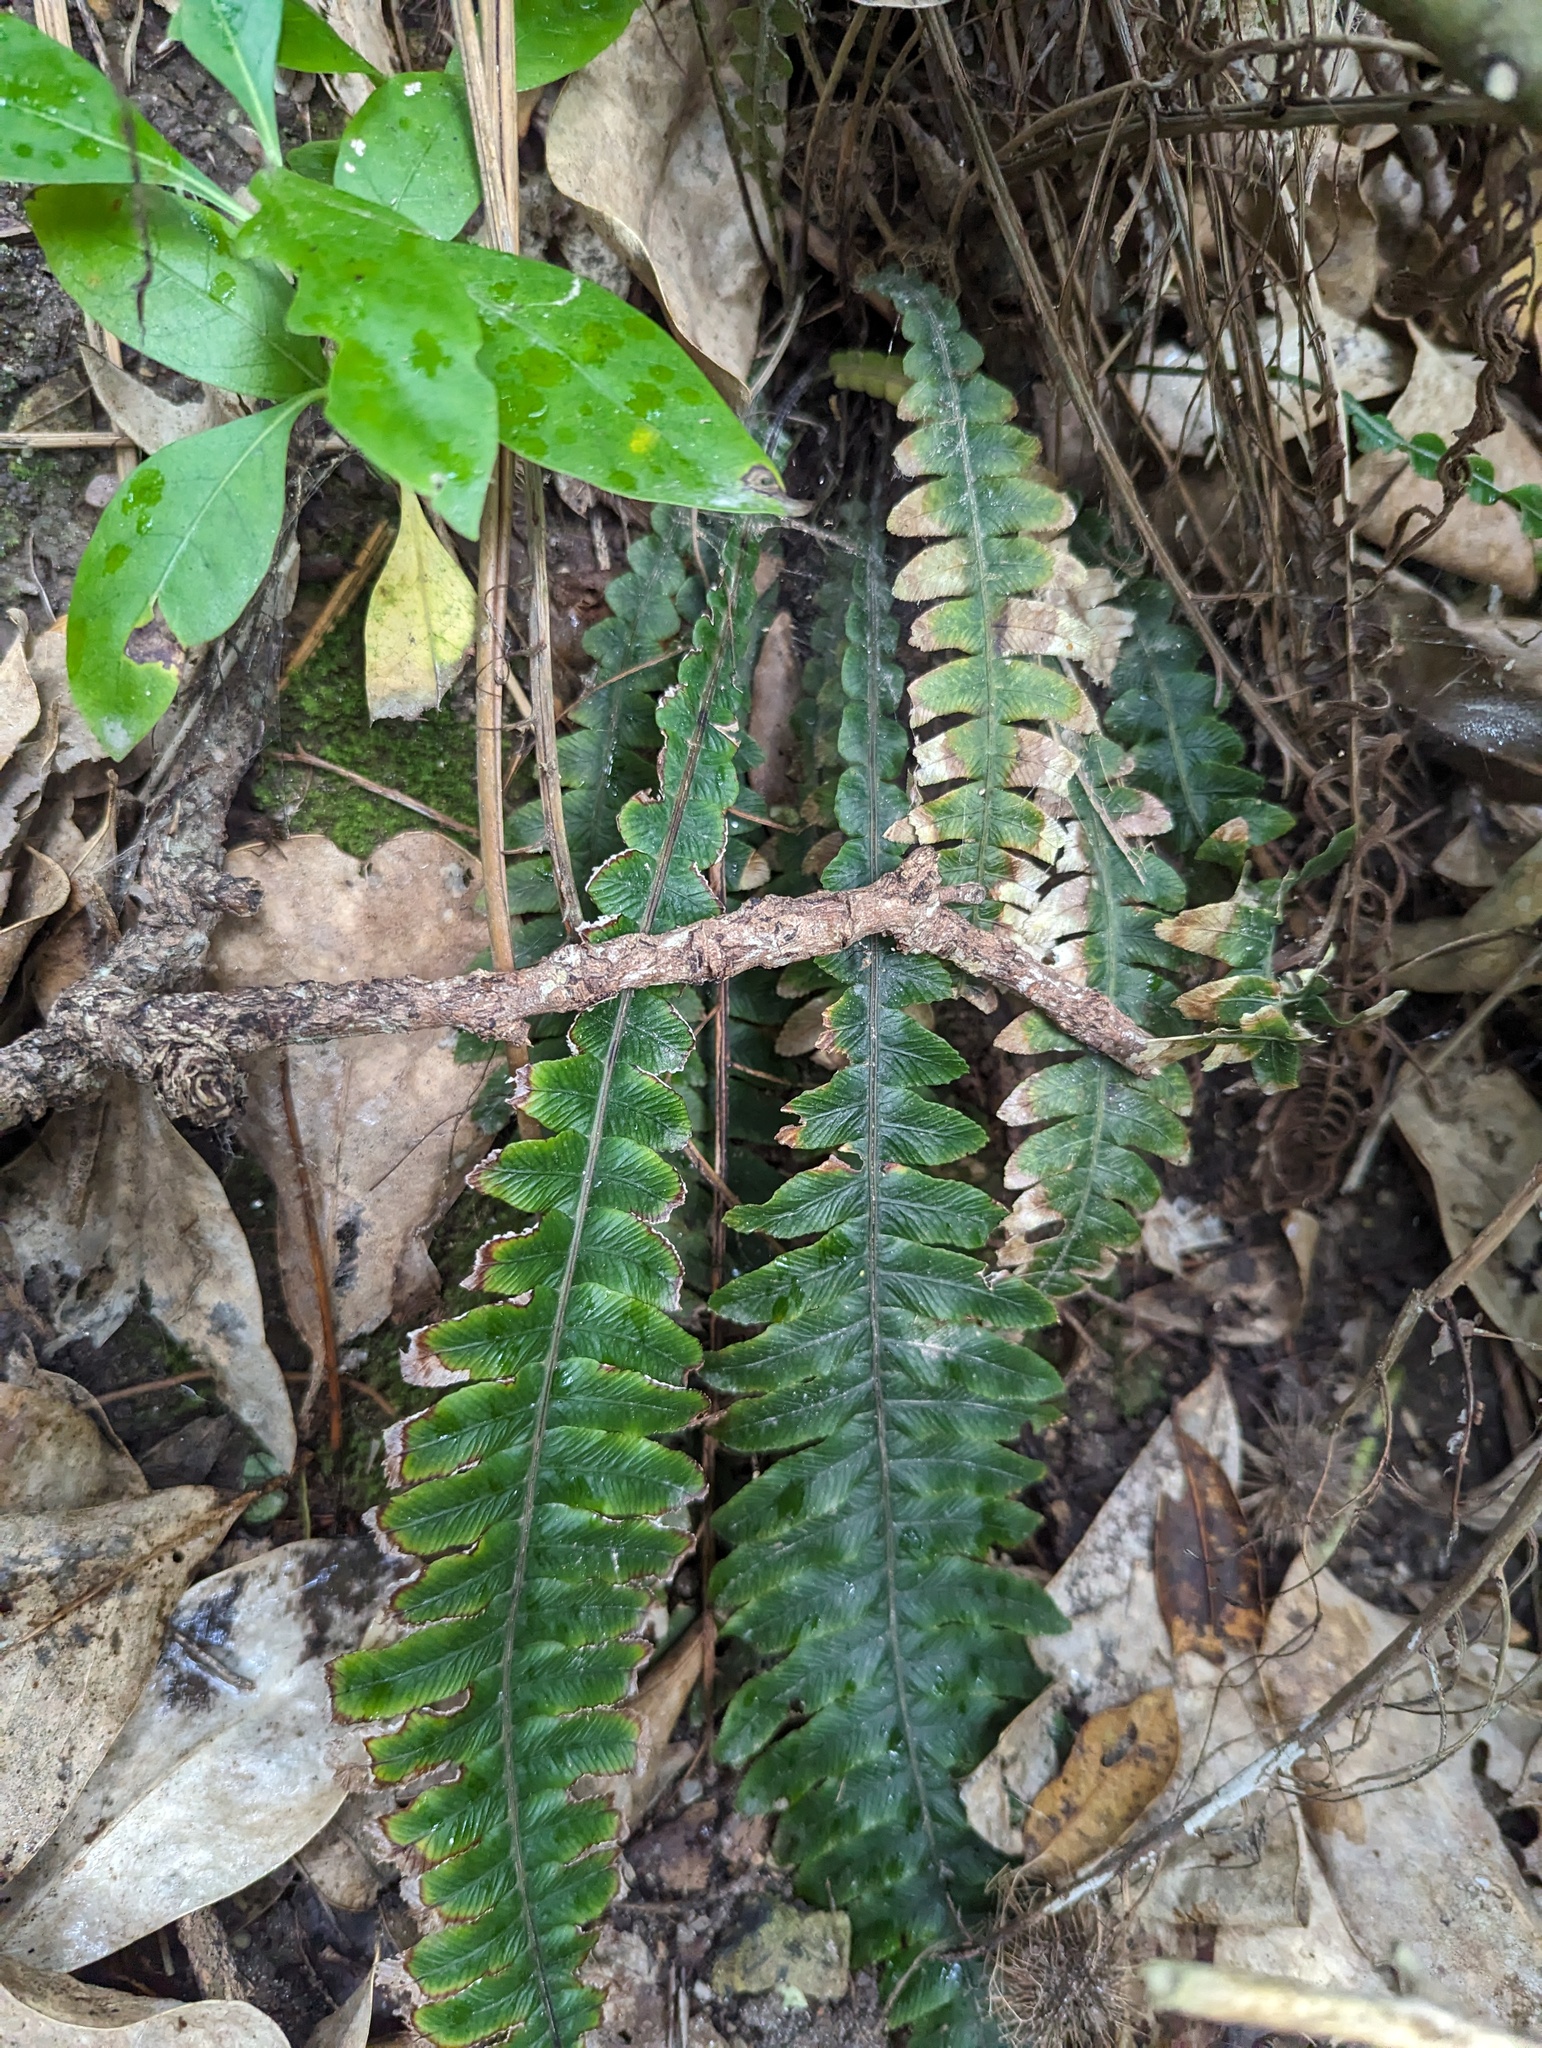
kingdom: Plantae
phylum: Tracheophyta
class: Polypodiopsida
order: Polypodiales
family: Blechnaceae
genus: Austroblechnum
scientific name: Austroblechnum lanceolatum
